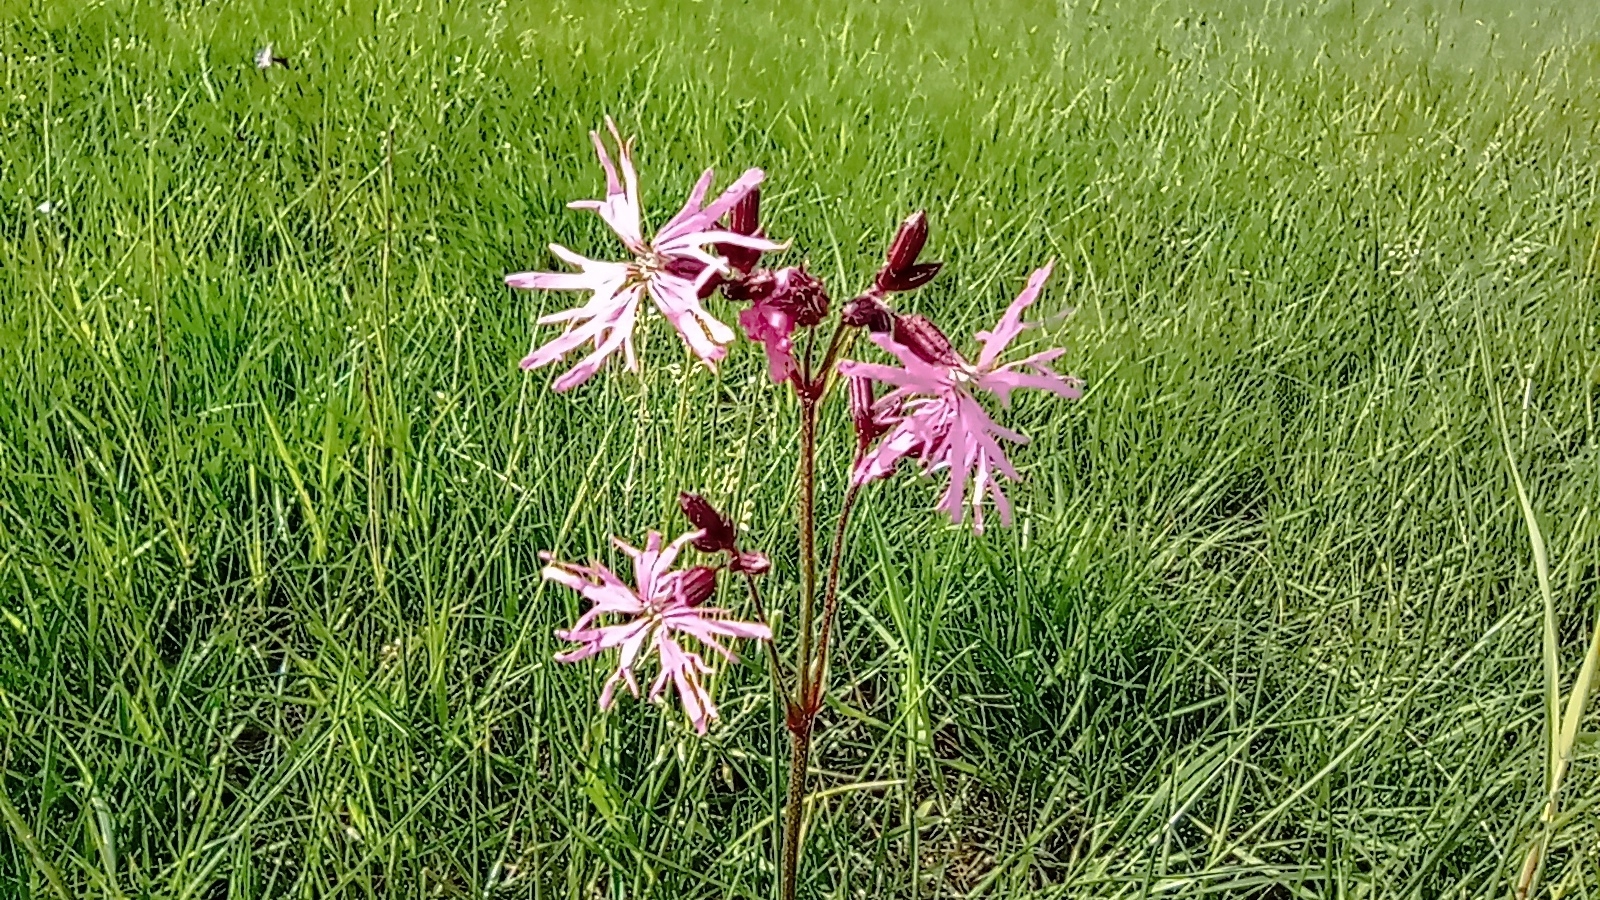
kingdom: Plantae
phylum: Tracheophyta
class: Magnoliopsida
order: Caryophyllales
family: Caryophyllaceae
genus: Silene
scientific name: Silene flos-cuculi
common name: Ragged-robin
